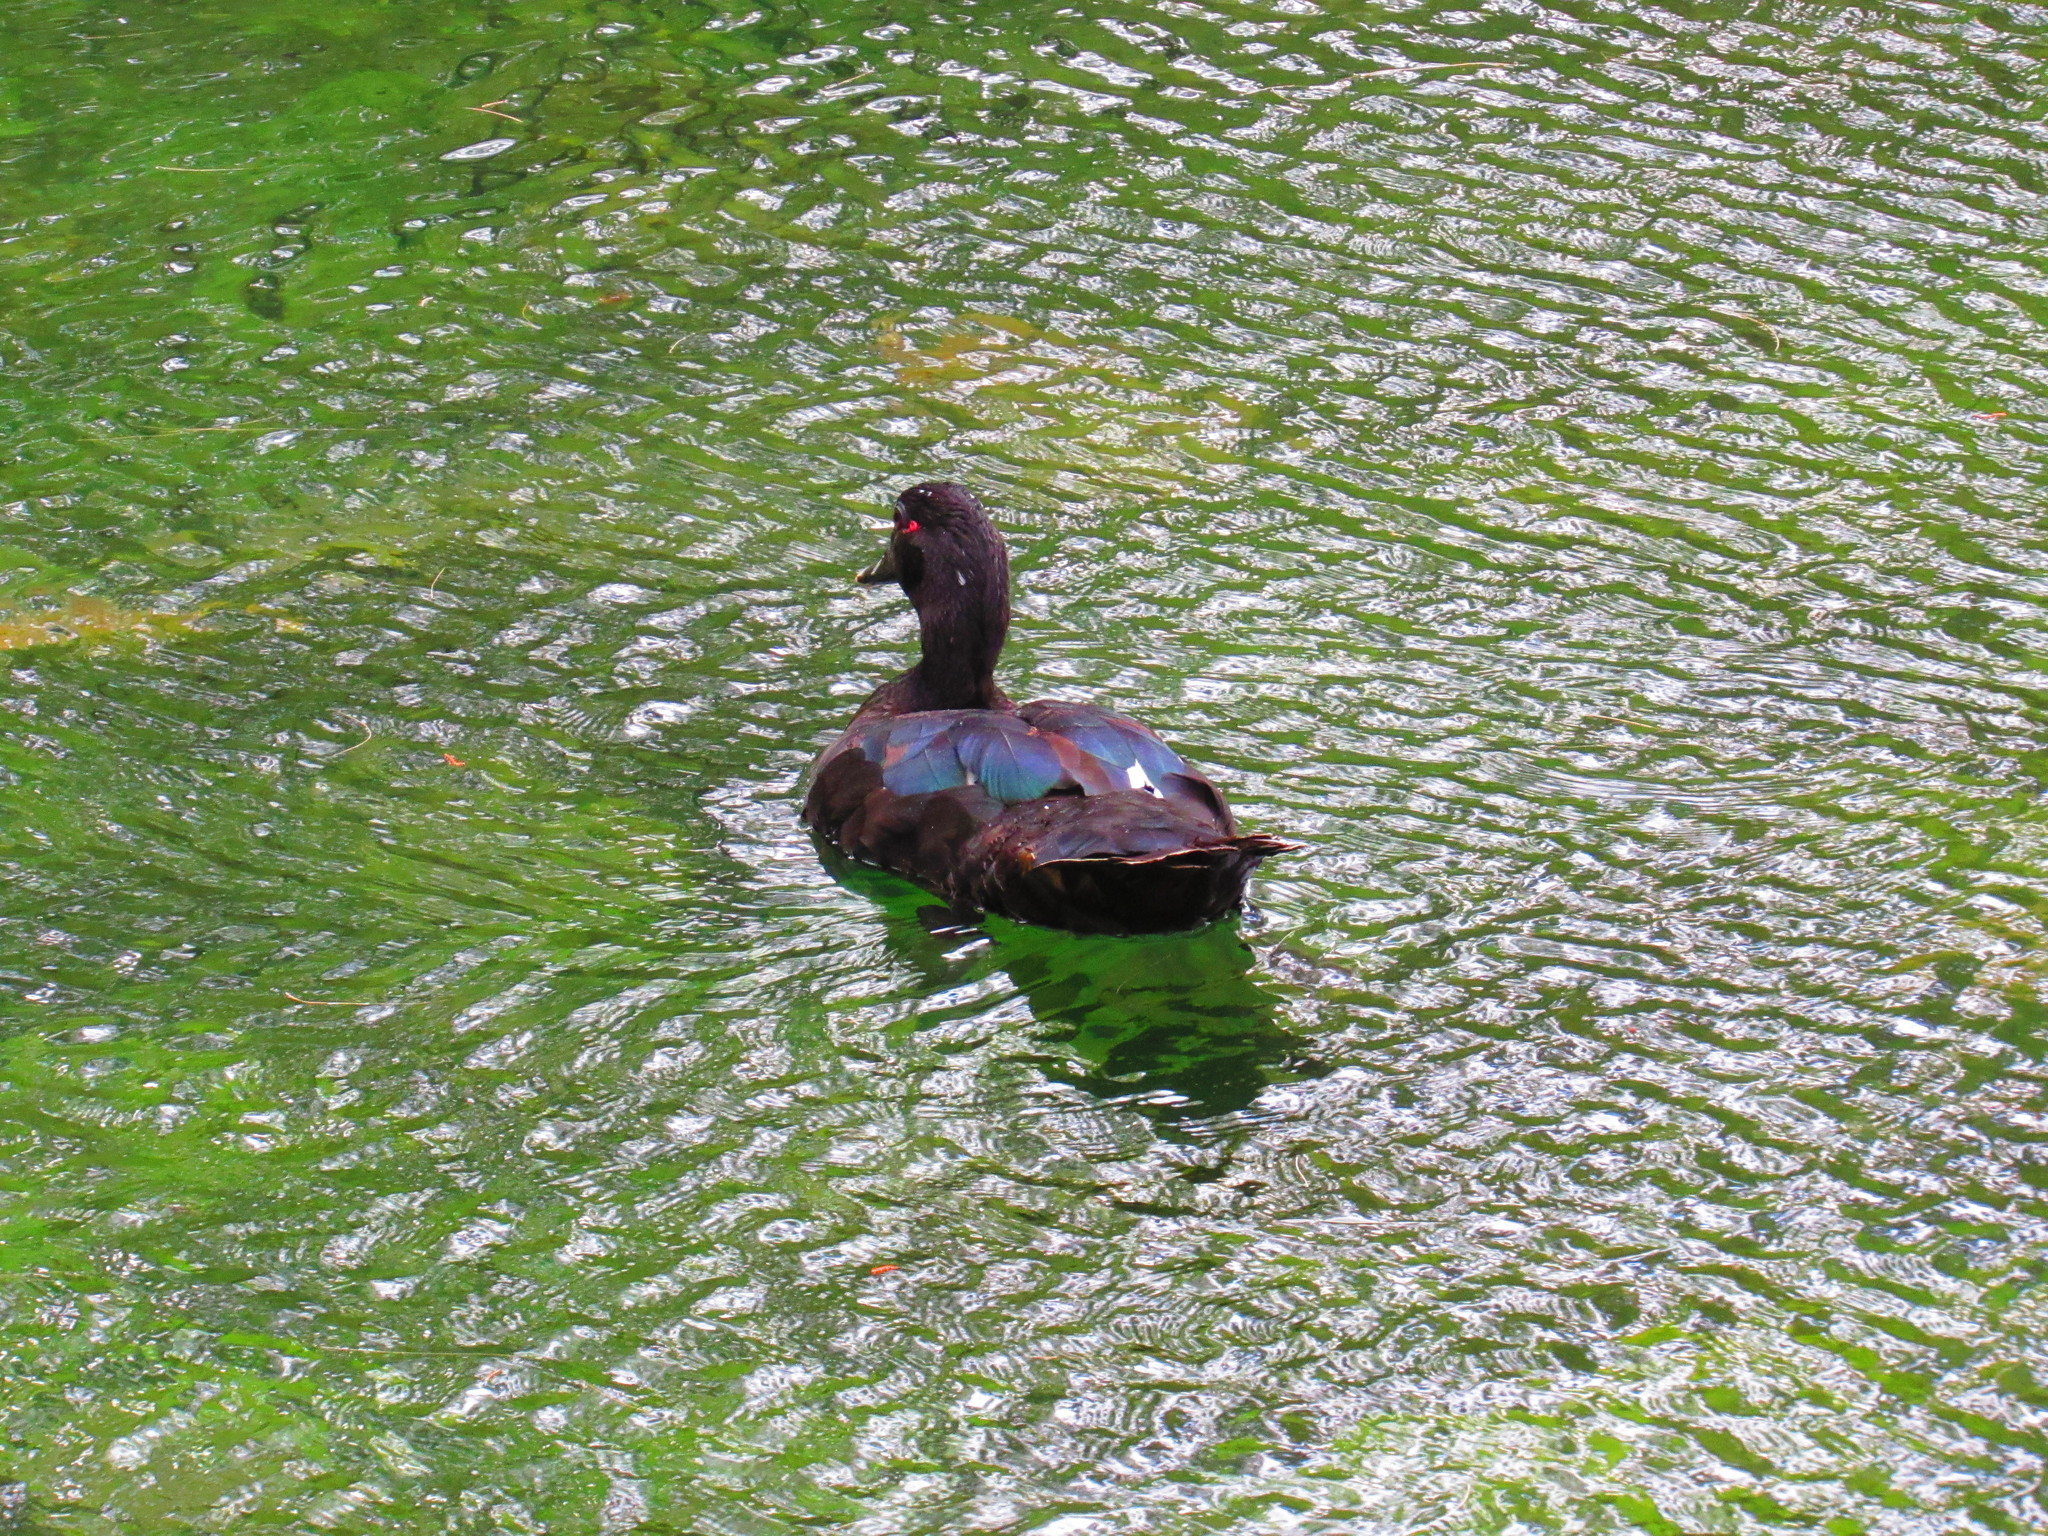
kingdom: Animalia
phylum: Chordata
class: Aves
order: Anseriformes
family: Anatidae
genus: Cairina
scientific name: Cairina moschata
